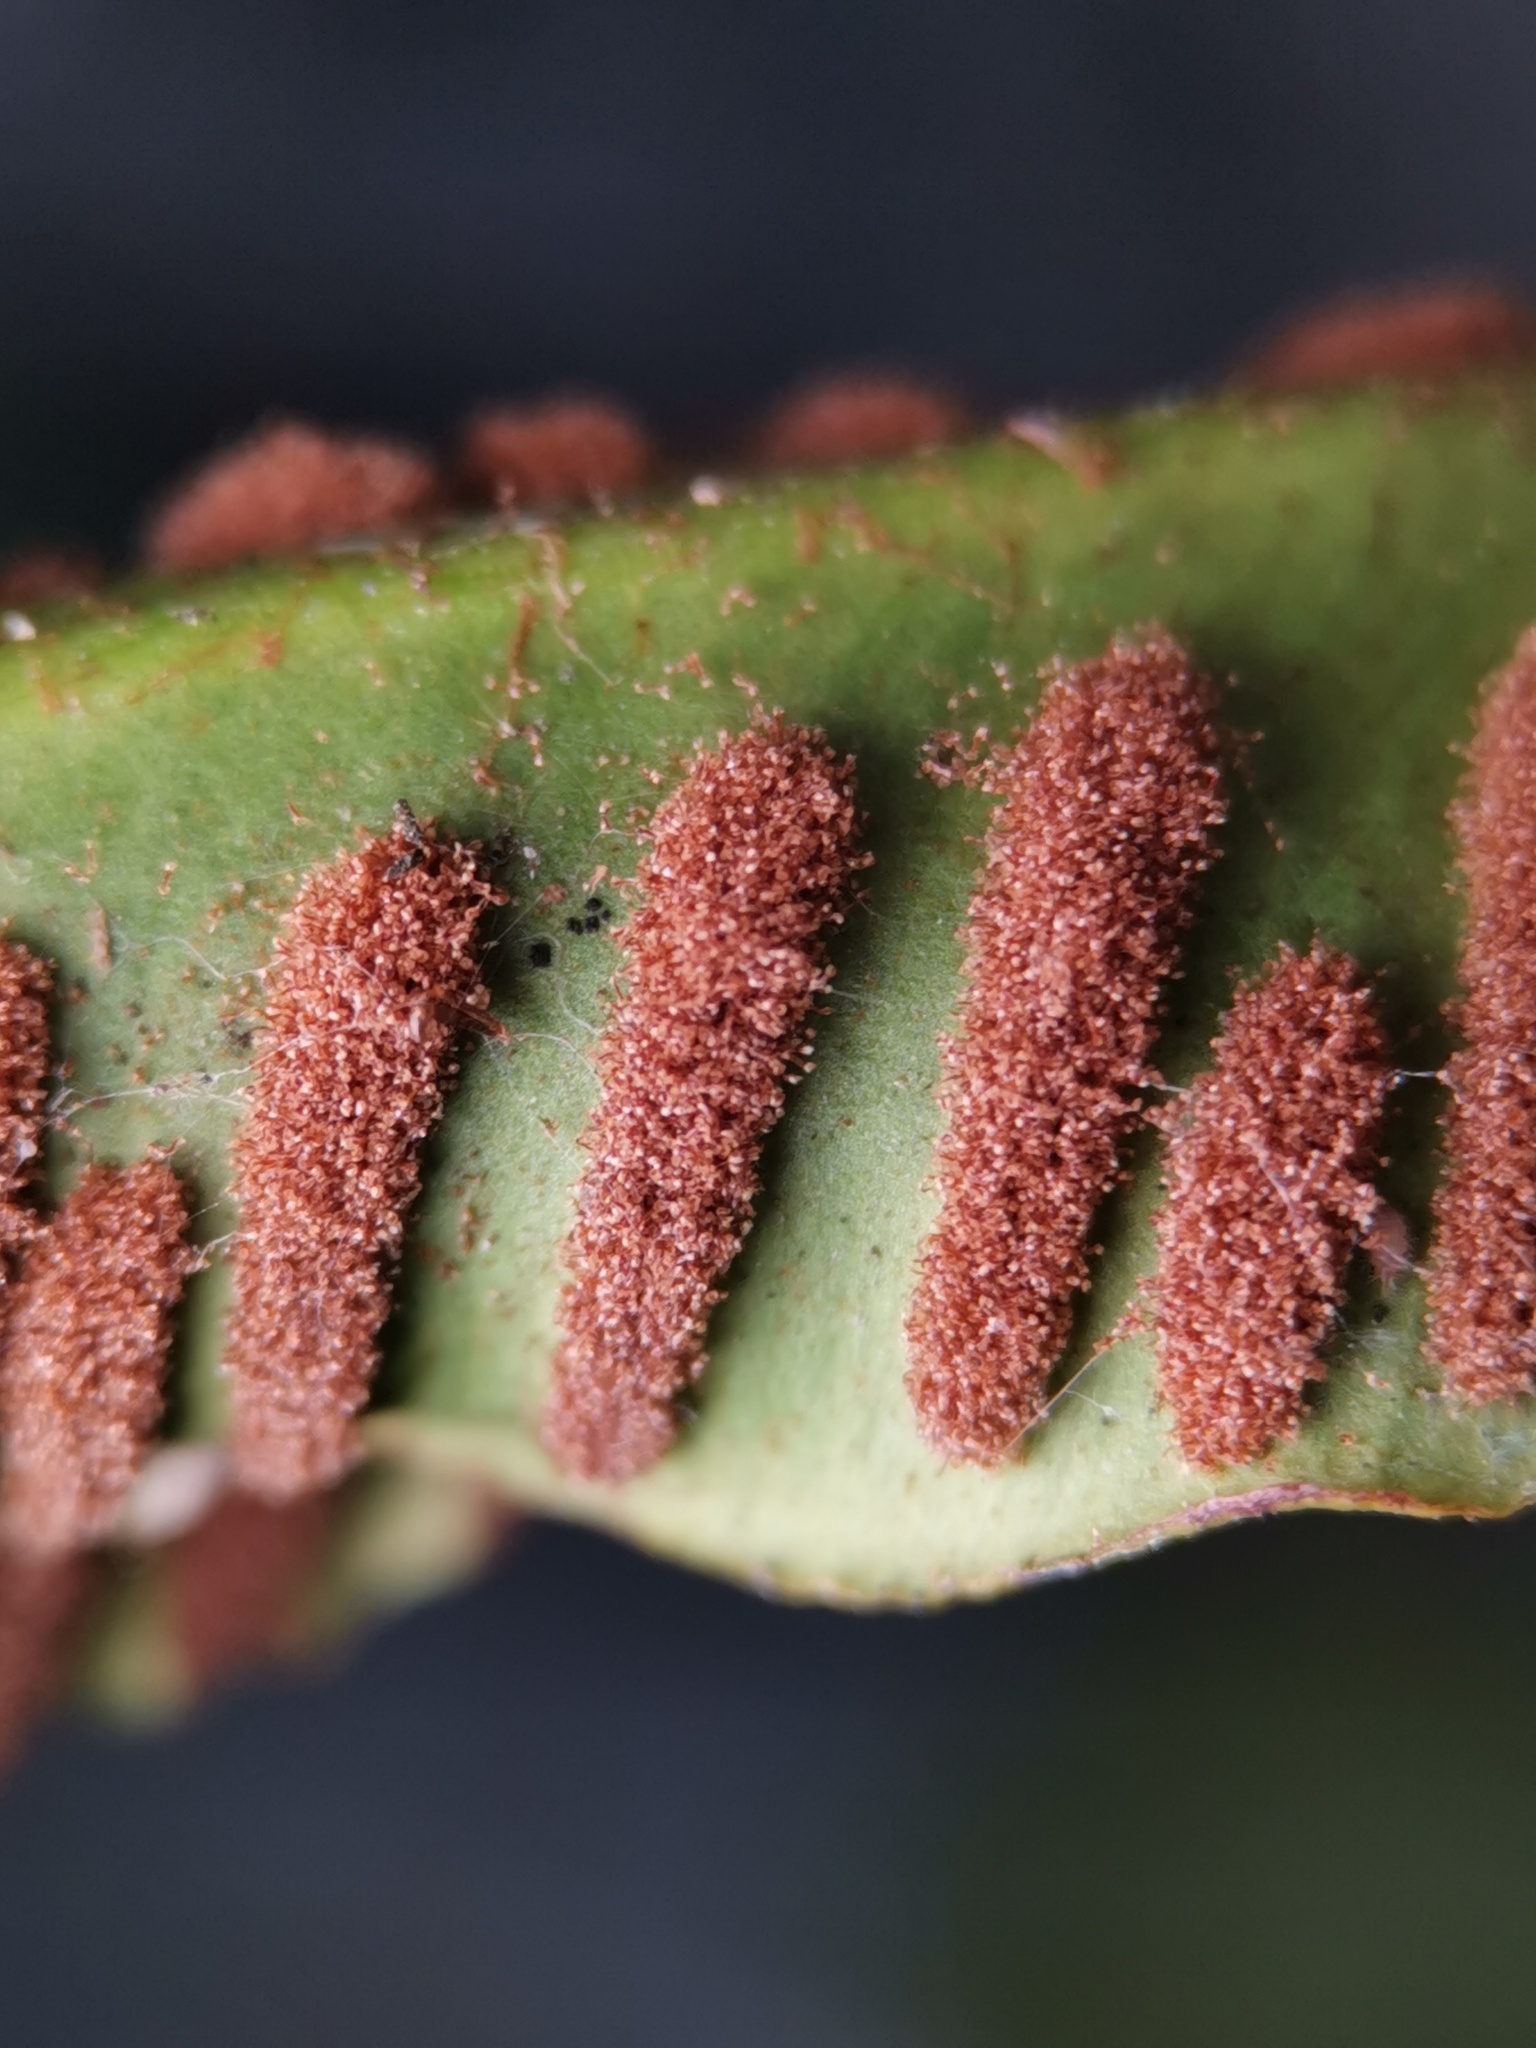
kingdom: Plantae
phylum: Tracheophyta
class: Polypodiopsida
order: Polypodiales
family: Aspleniaceae
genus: Asplenium
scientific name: Asplenium scolopendrium
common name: Hart's-tongue fern
